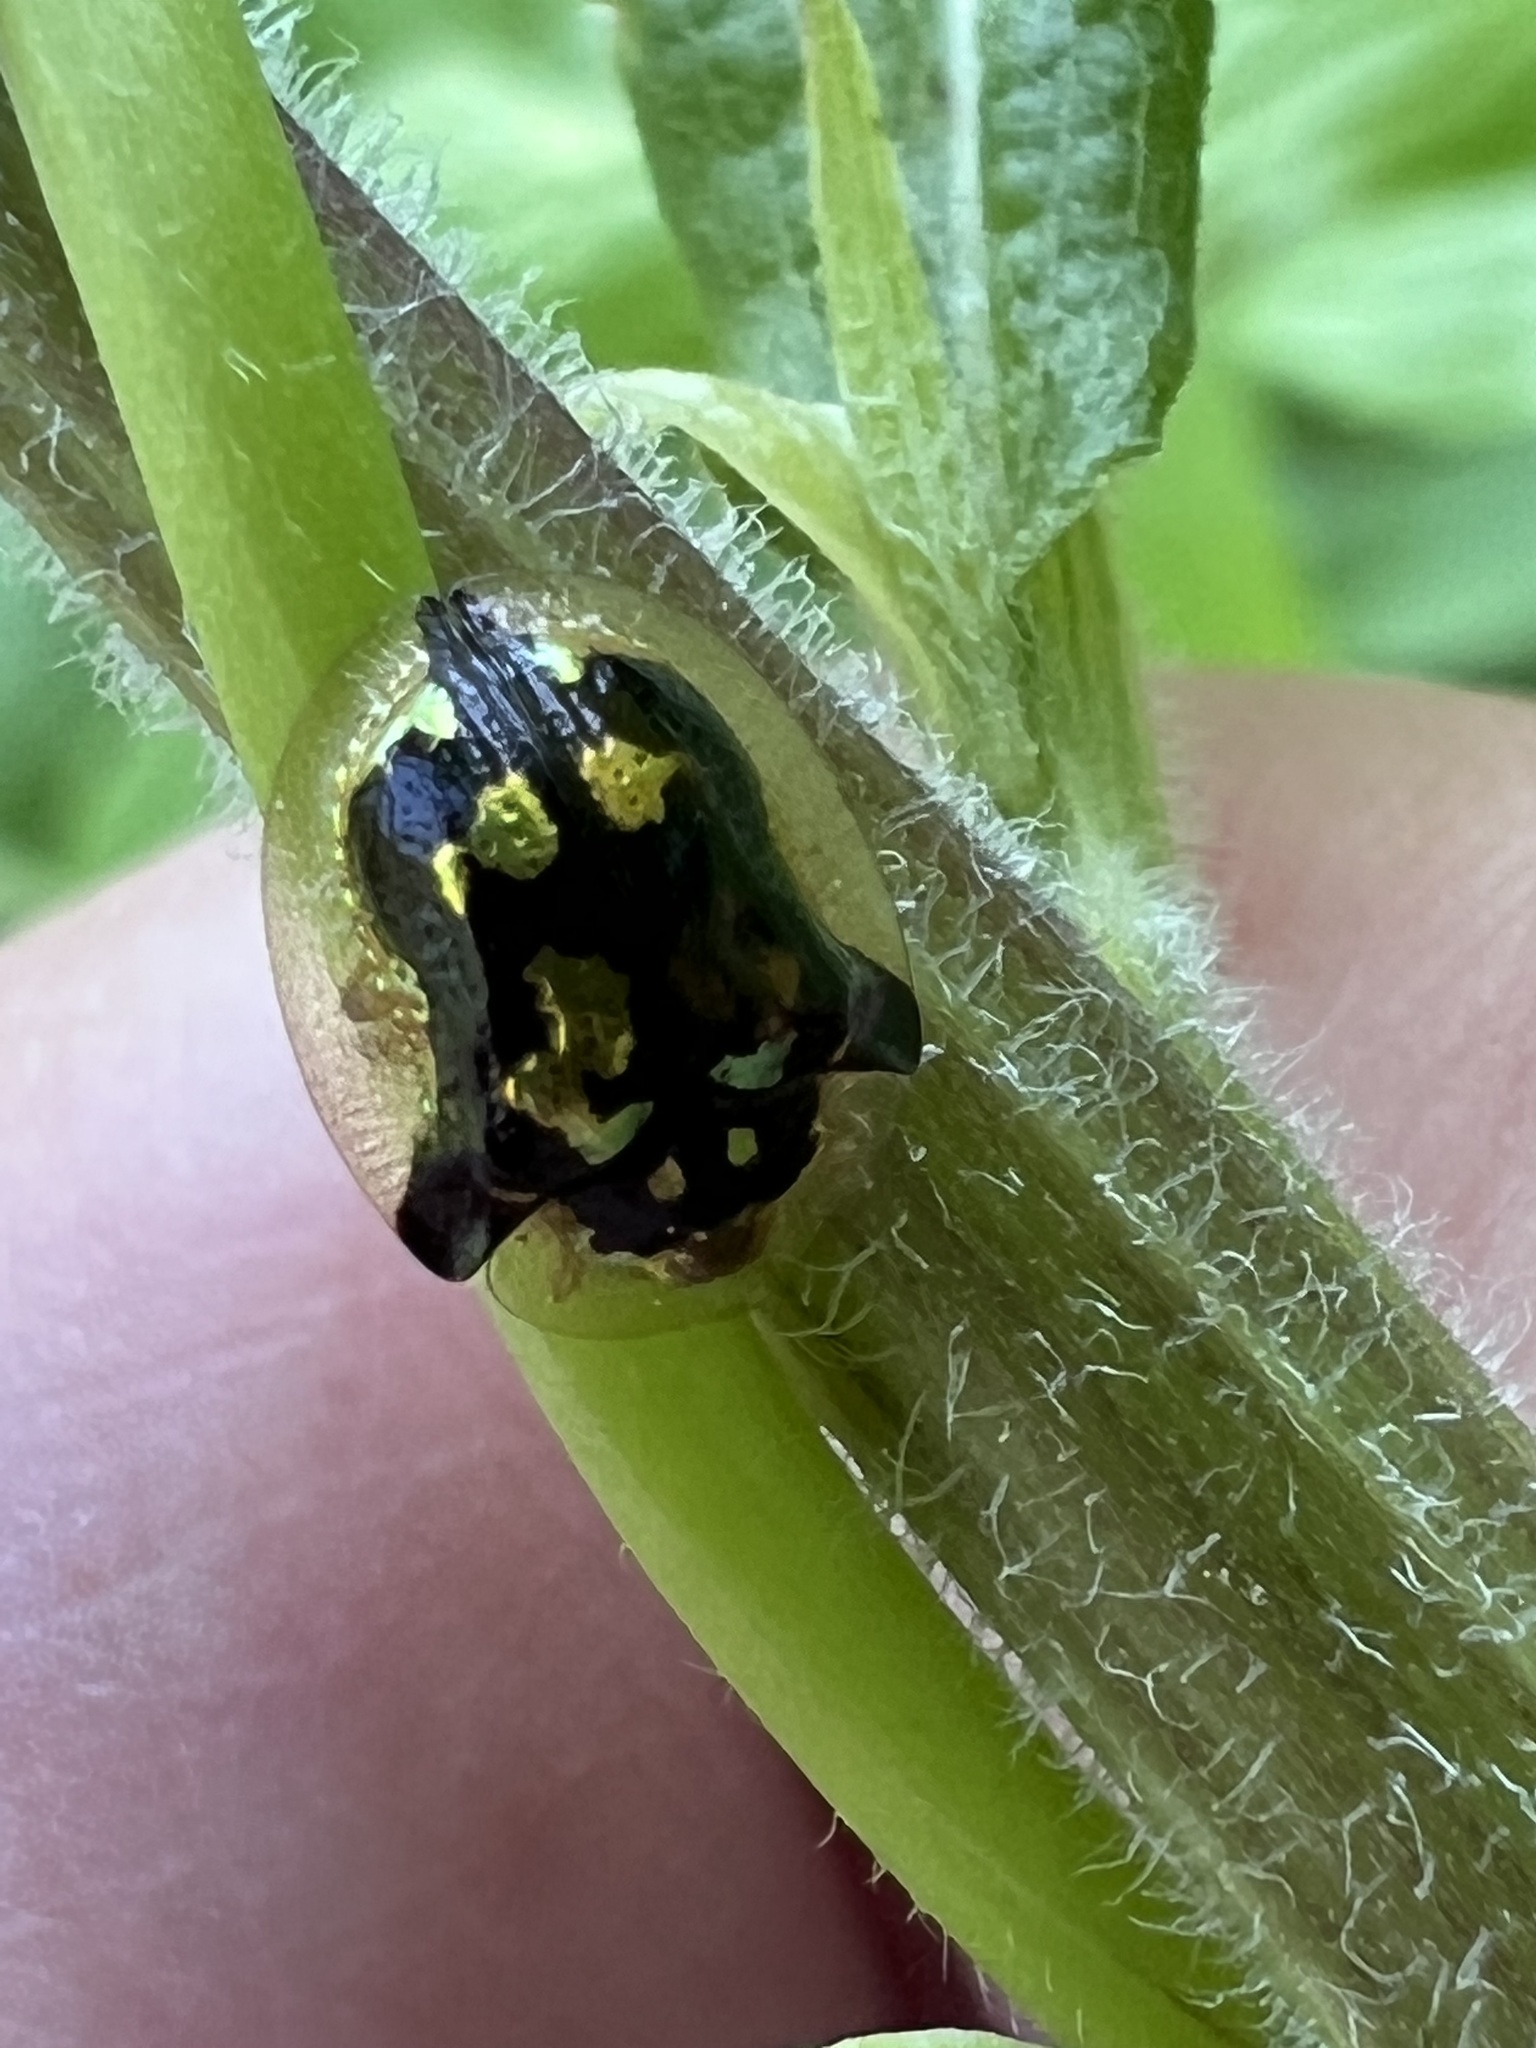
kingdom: Animalia
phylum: Arthropoda
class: Insecta
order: Coleoptera
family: Chrysomelidae
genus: Deloyala
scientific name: Deloyala guttata
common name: Mottled tortoise beetle
